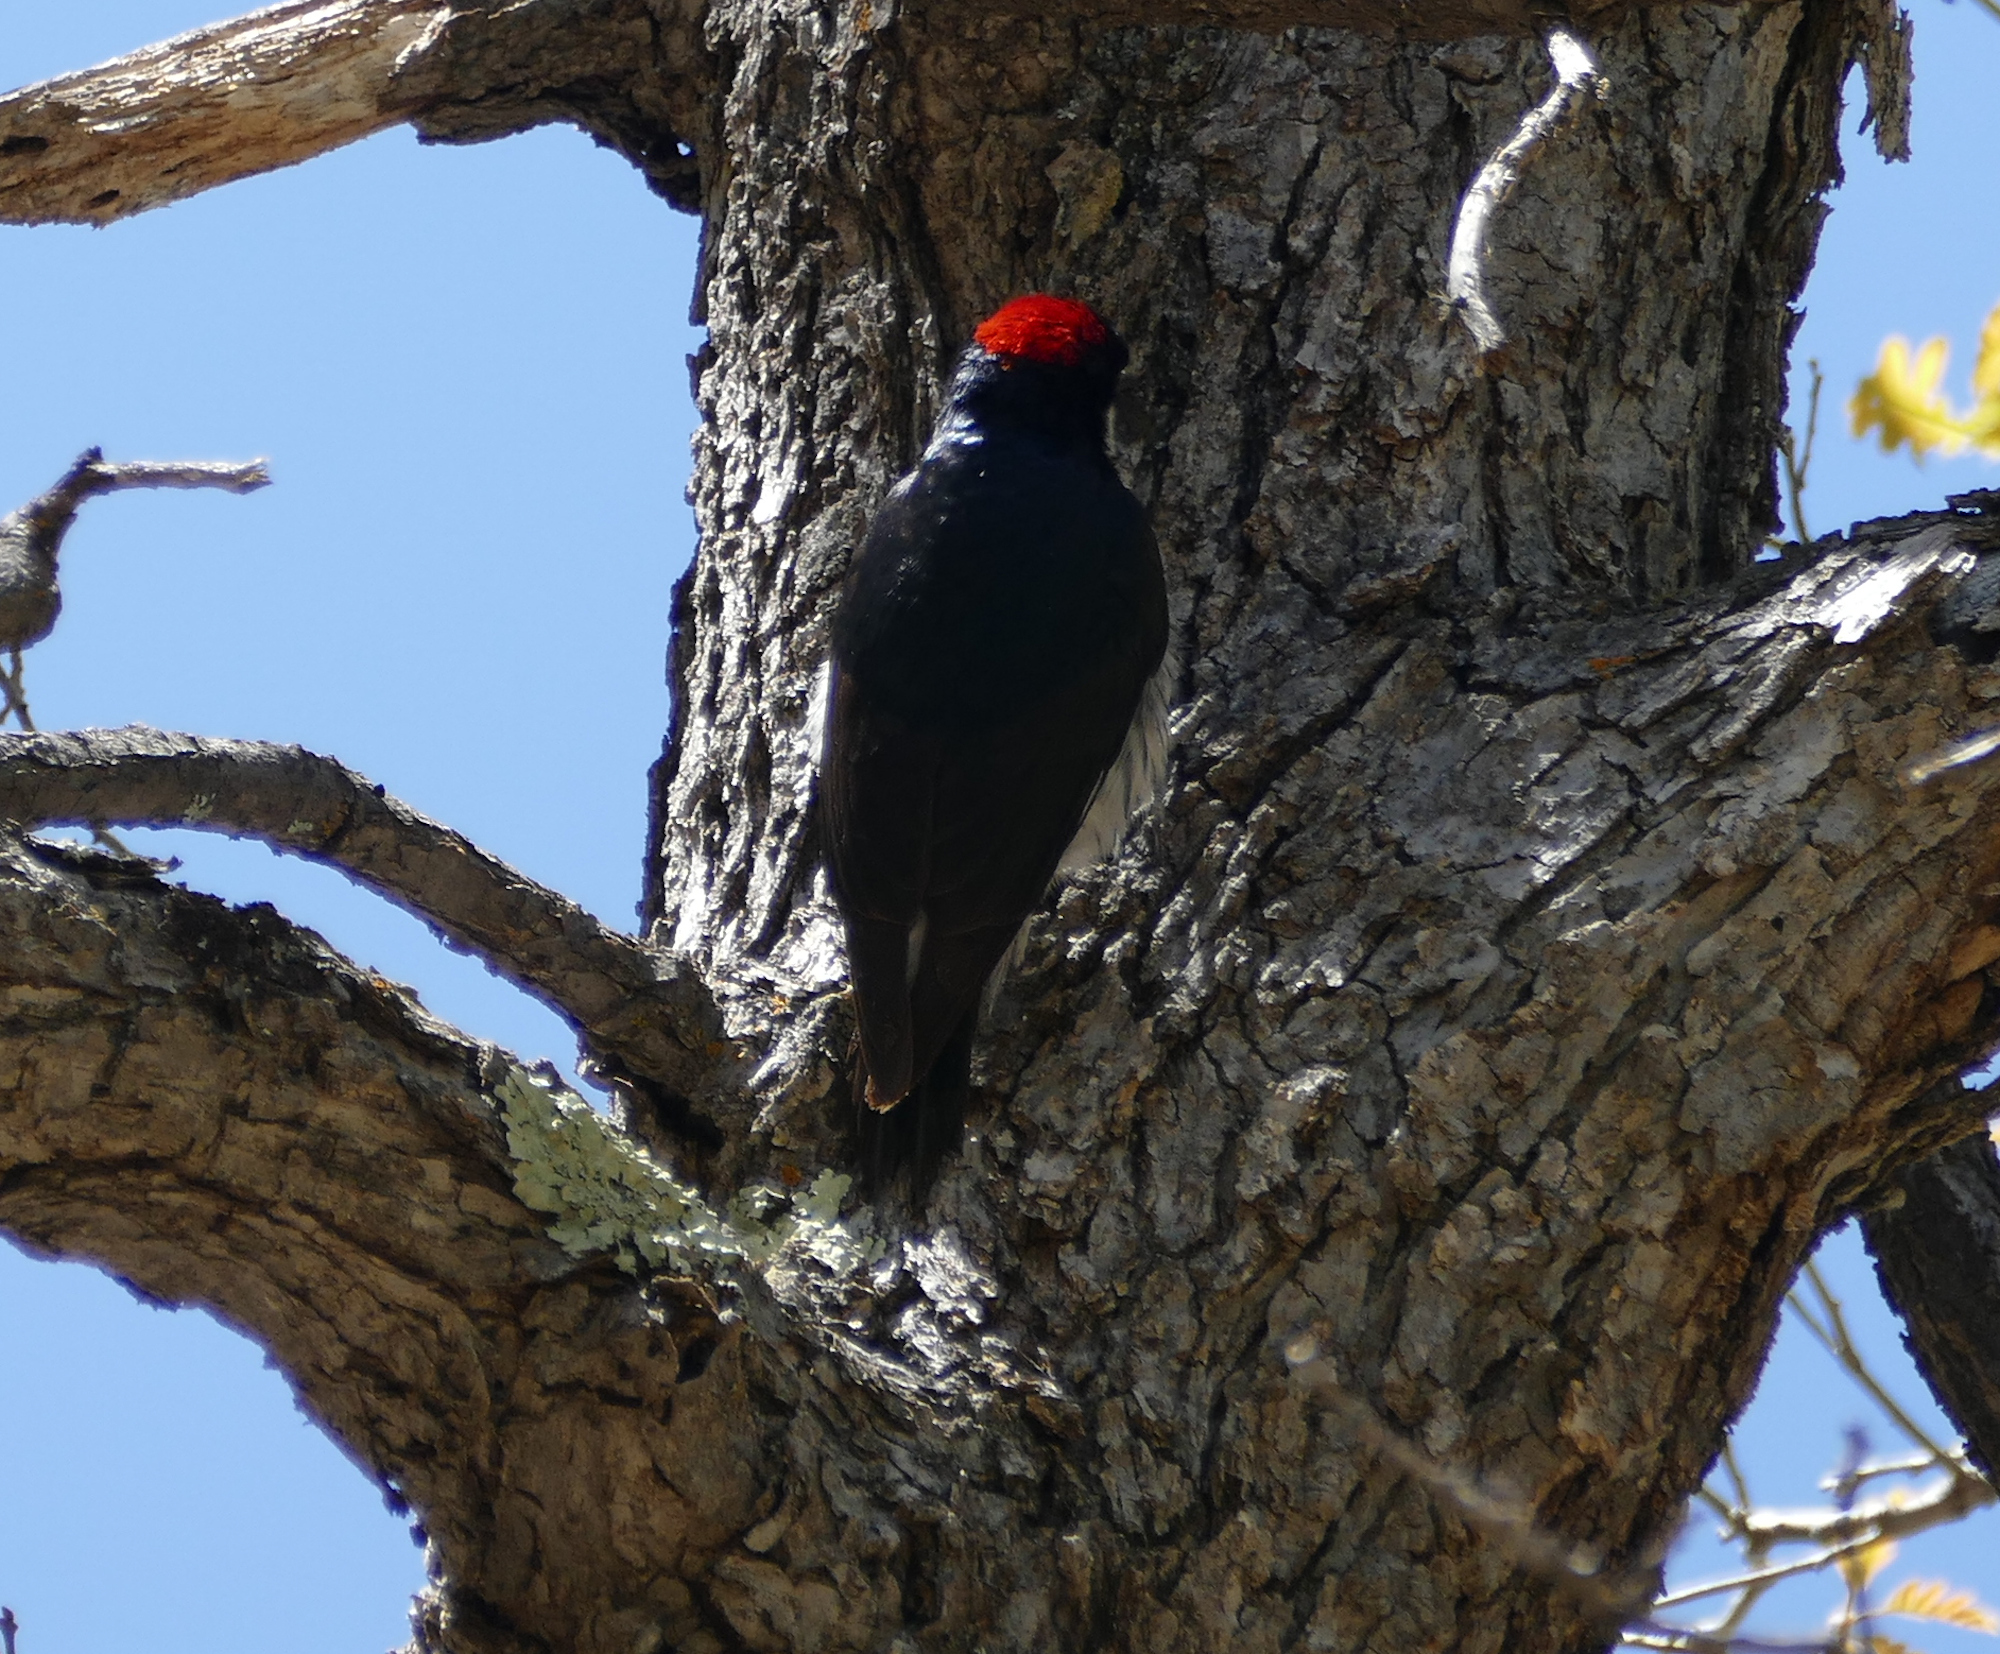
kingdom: Animalia
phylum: Chordata
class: Aves
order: Piciformes
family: Picidae
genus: Melanerpes
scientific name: Melanerpes formicivorus
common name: Acorn woodpecker
